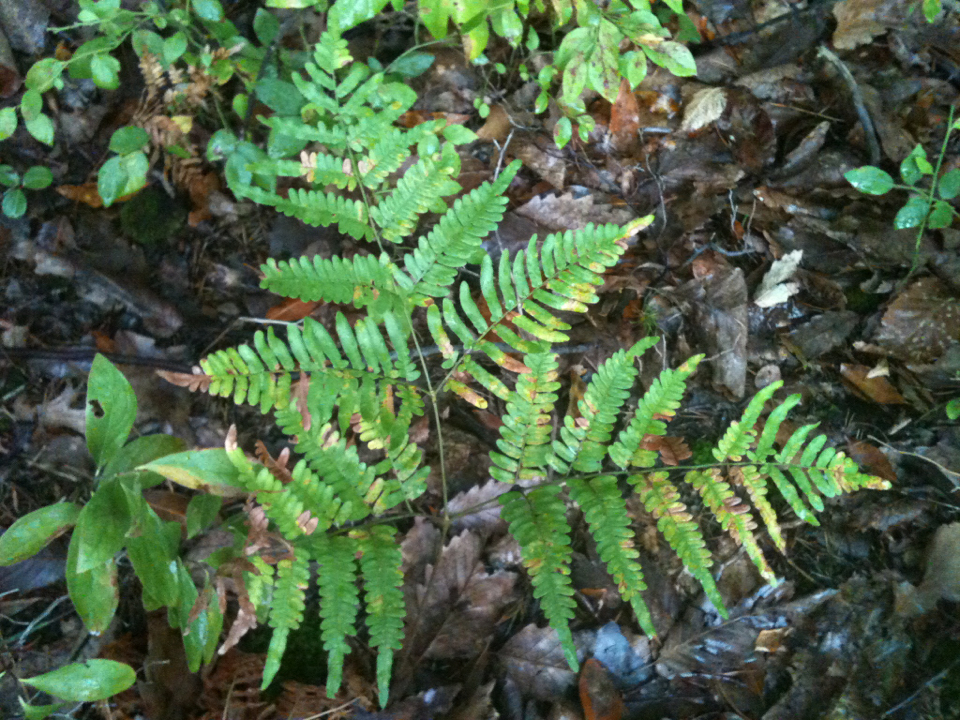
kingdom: Plantae
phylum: Tracheophyta
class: Polypodiopsida
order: Polypodiales
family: Dennstaedtiaceae
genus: Pteridium
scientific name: Pteridium aquilinum
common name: Bracken
